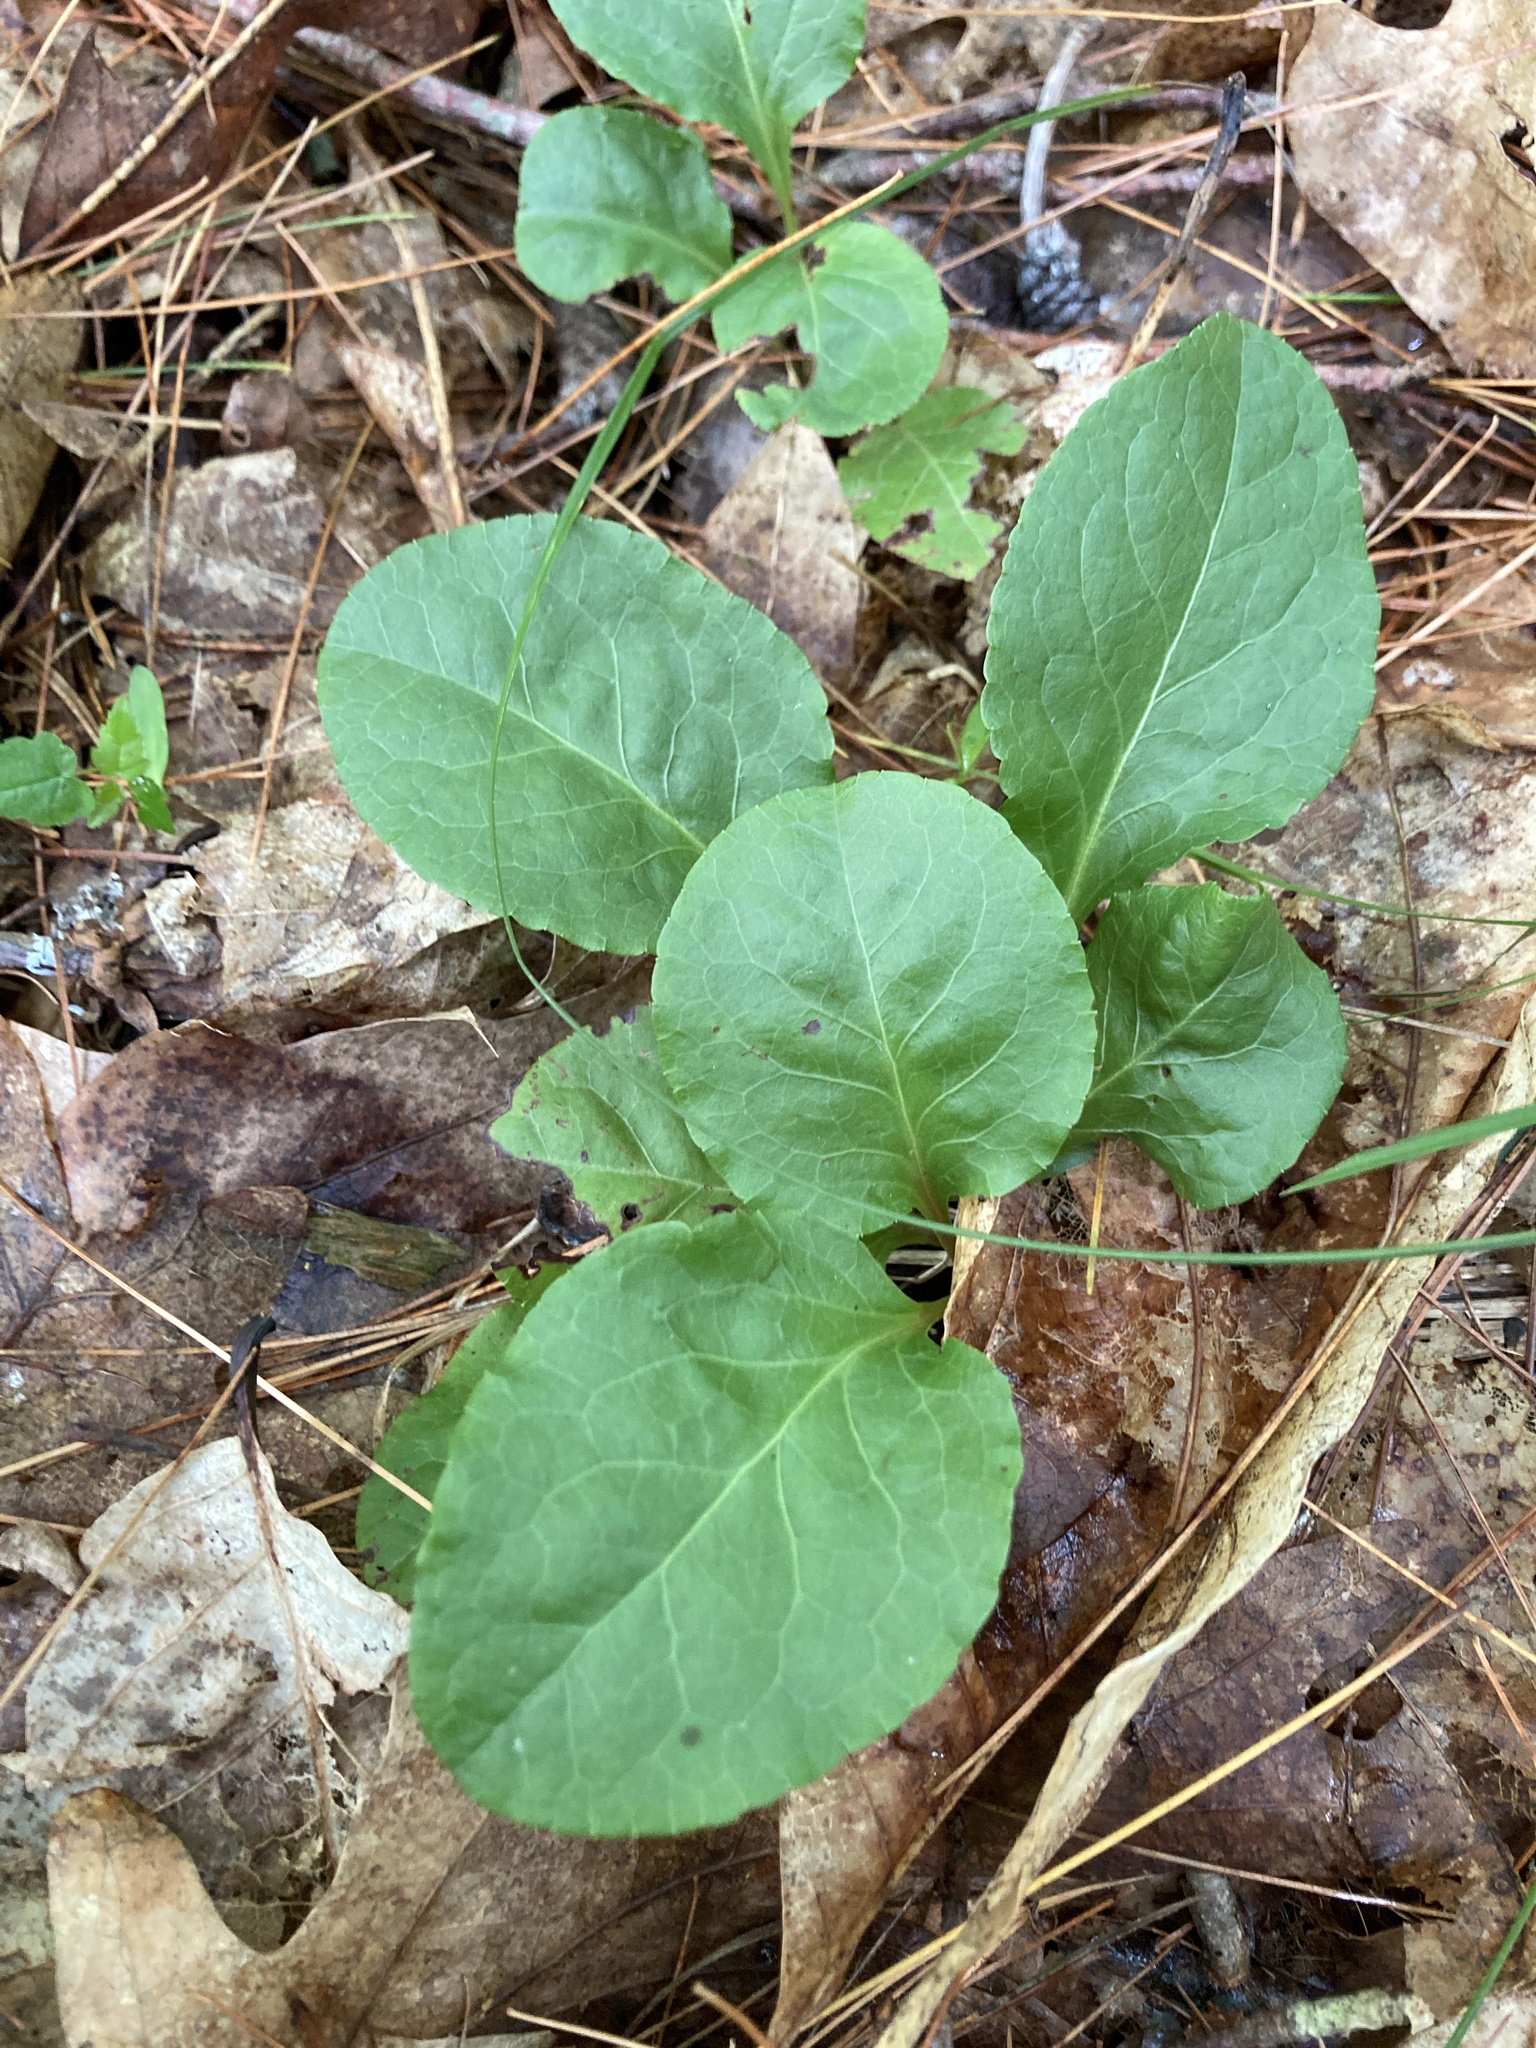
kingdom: Plantae
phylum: Tracheophyta
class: Magnoliopsida
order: Ericales
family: Ericaceae
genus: Pyrola
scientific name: Pyrola elliptica
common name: Shinleaf
